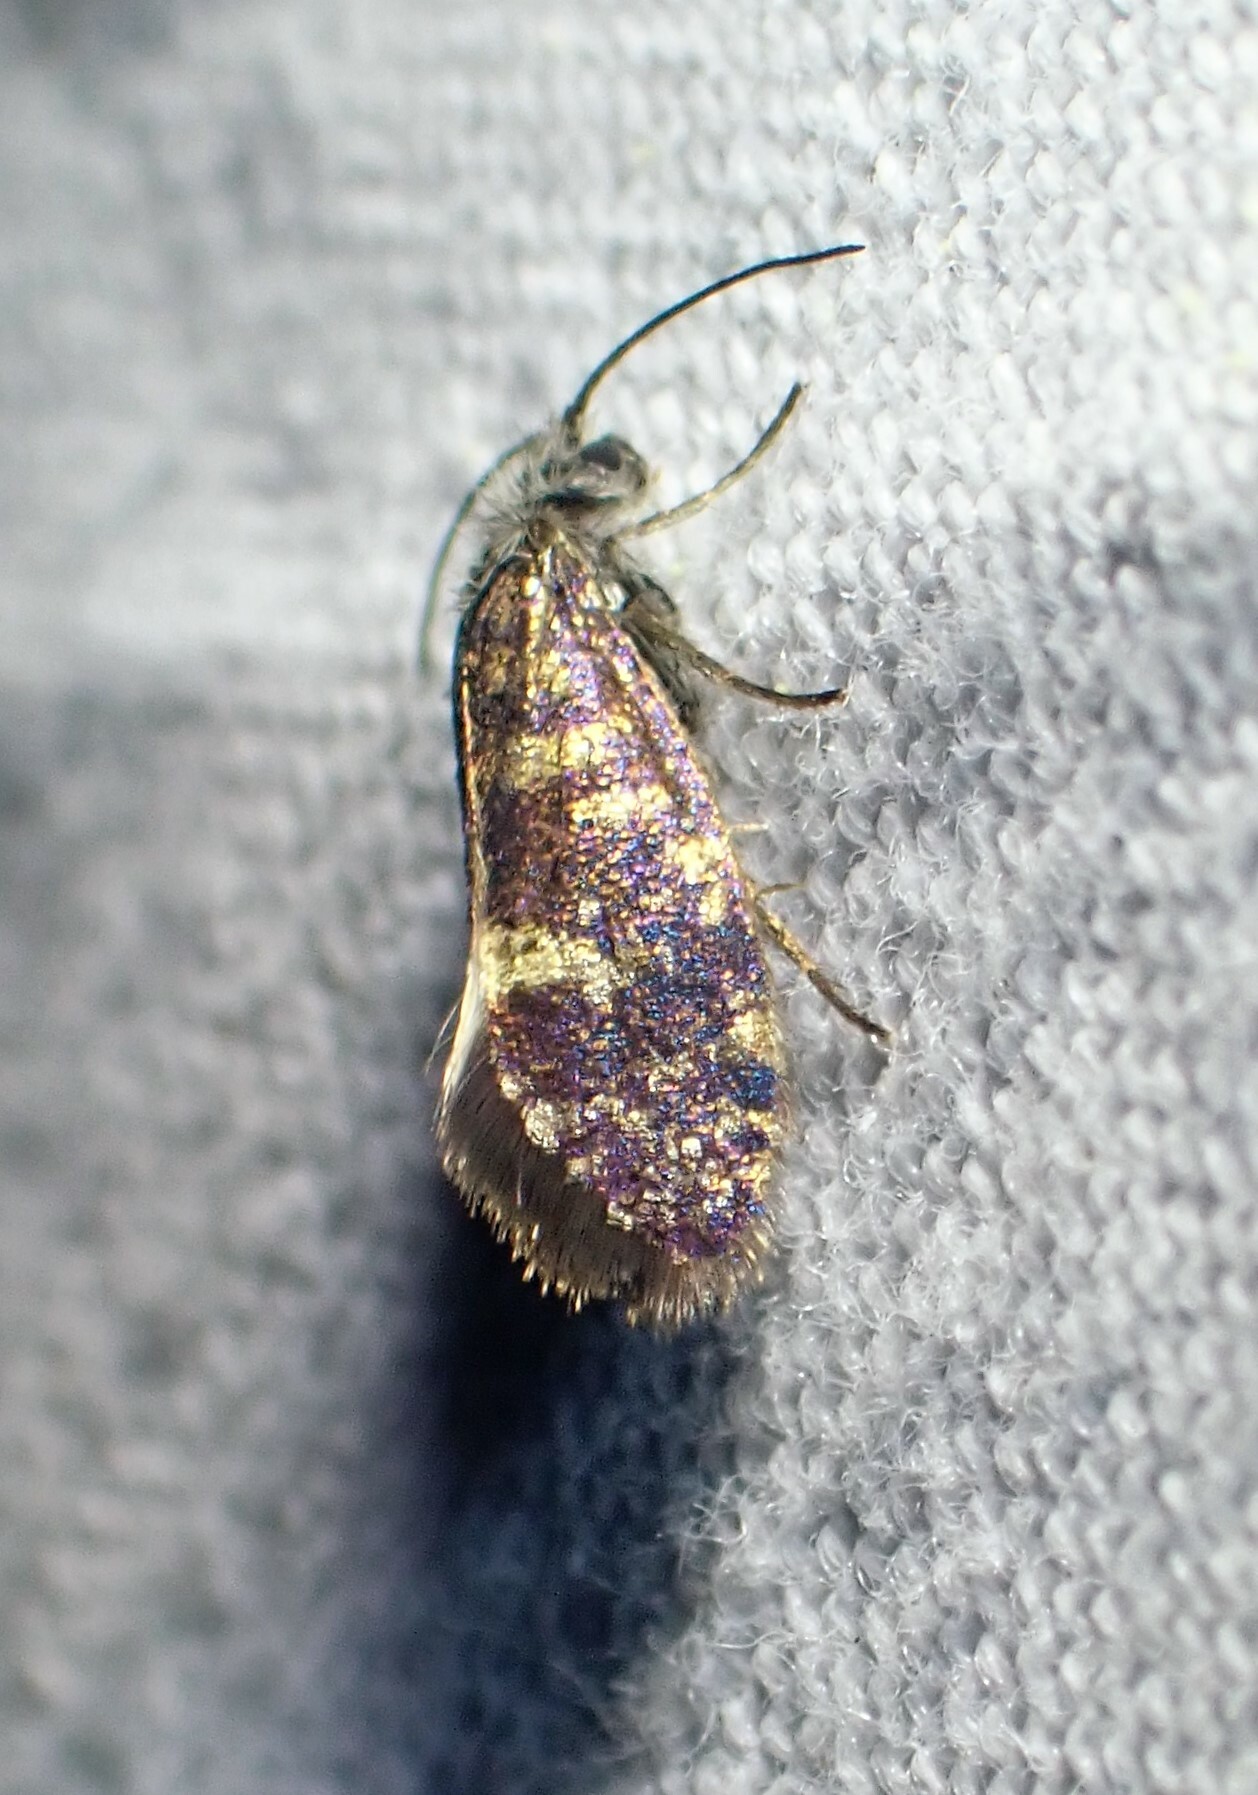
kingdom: Animalia
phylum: Arthropoda
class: Insecta
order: Lepidoptera
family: Eriocraniidae
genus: Eriocrania
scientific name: Eriocrania semipurpurella
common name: Early purple
